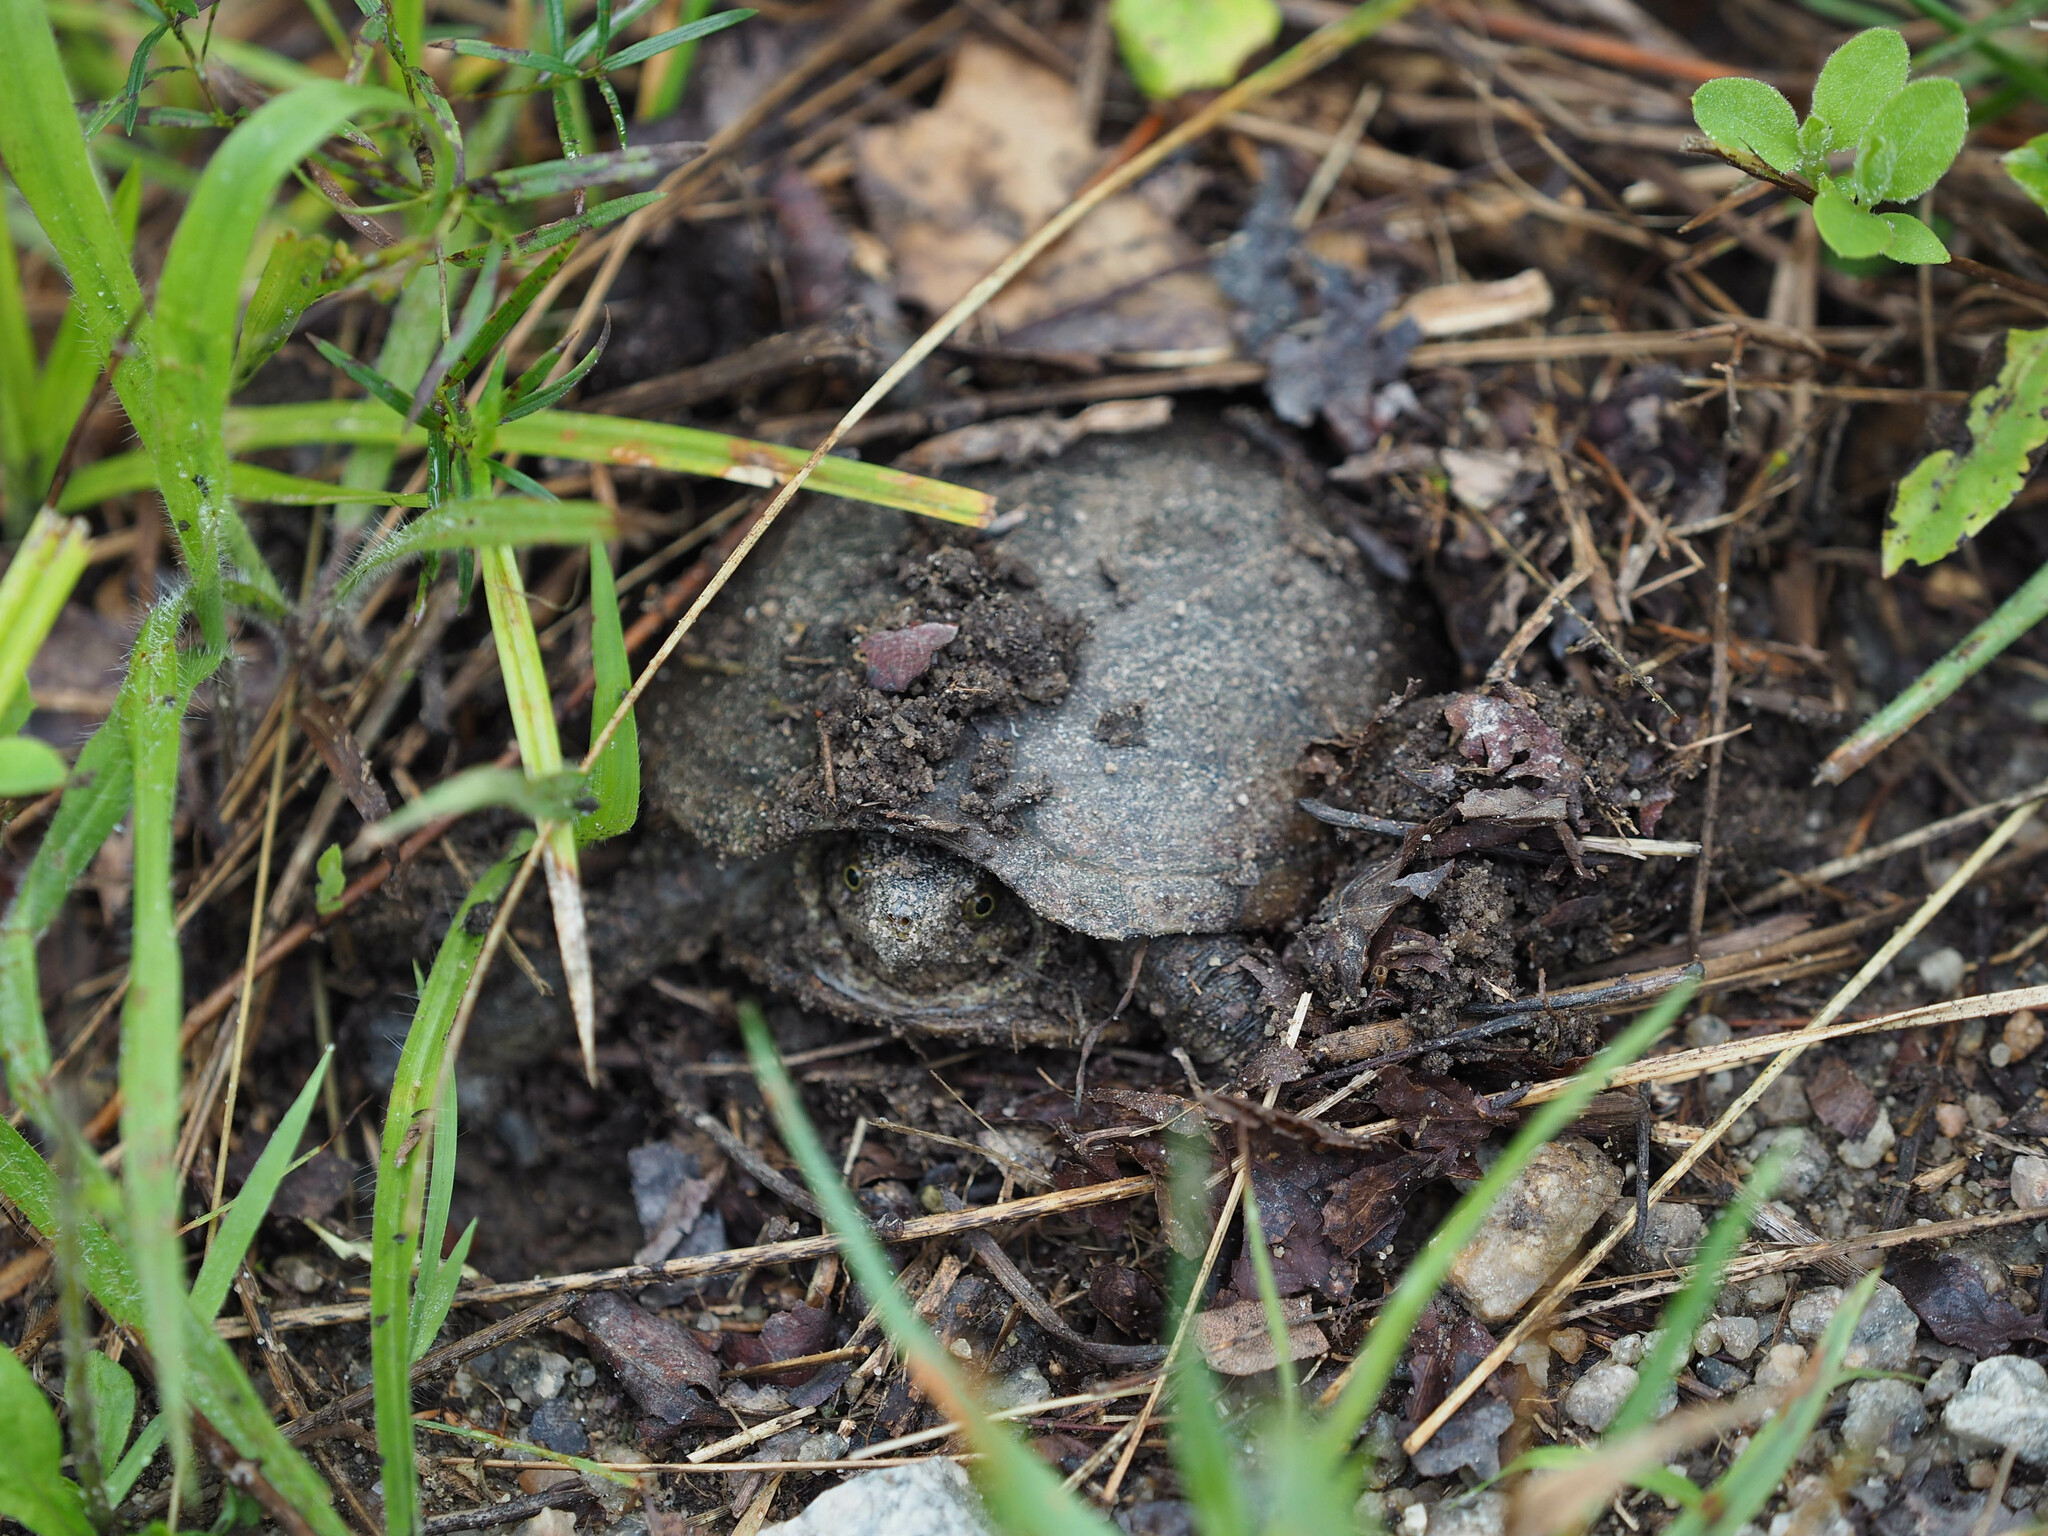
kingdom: Animalia
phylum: Chordata
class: Testudines
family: Kinosternidae
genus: Kinosternon
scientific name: Kinosternon subrubrum
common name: Eastern mud turtle
